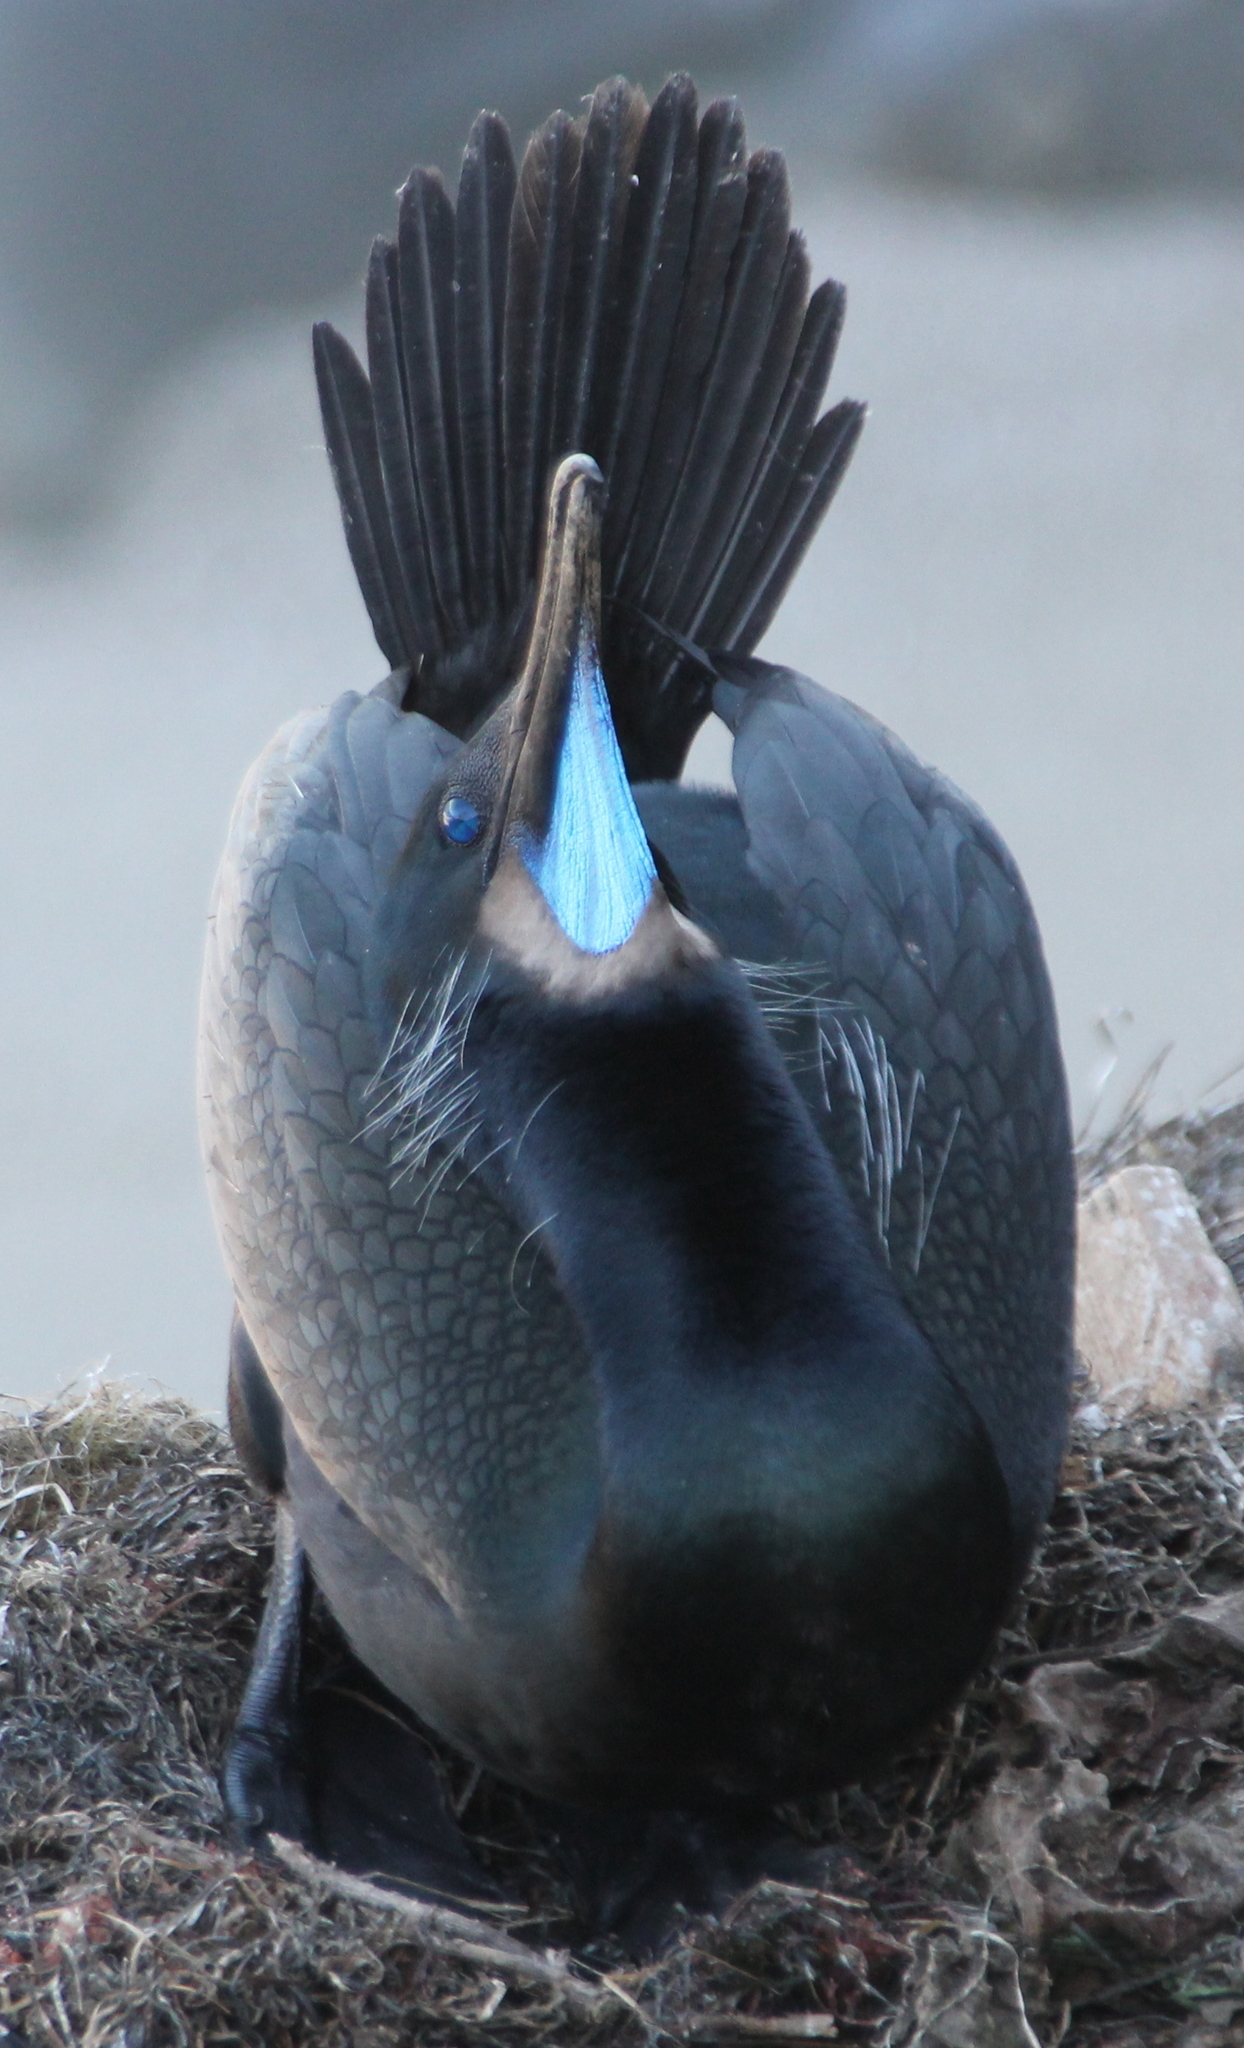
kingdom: Animalia
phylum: Chordata
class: Aves
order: Suliformes
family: Phalacrocoracidae
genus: Urile
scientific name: Urile penicillatus
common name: Brandt's cormorant
